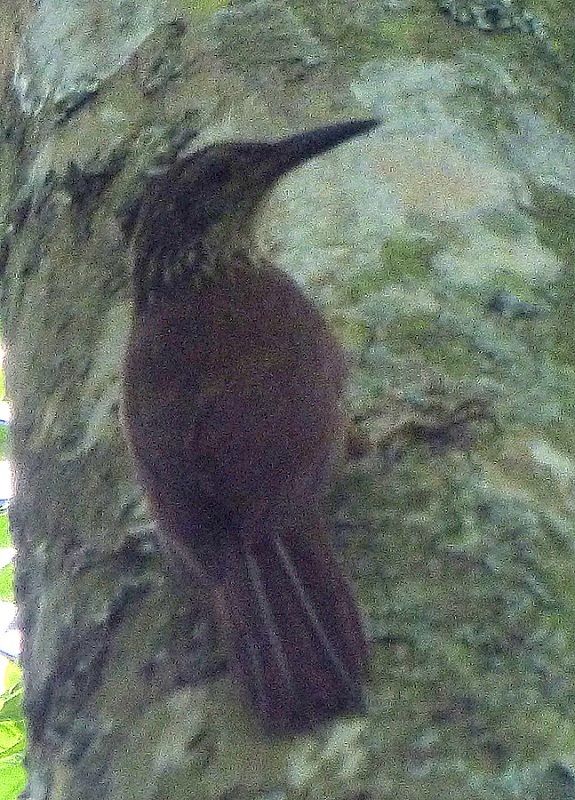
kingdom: Animalia
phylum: Chordata
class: Aves
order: Passeriformes
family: Furnariidae
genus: Dendrocolaptes
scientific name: Dendrocolaptes platyrostris
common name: Planalto woodcreeper
